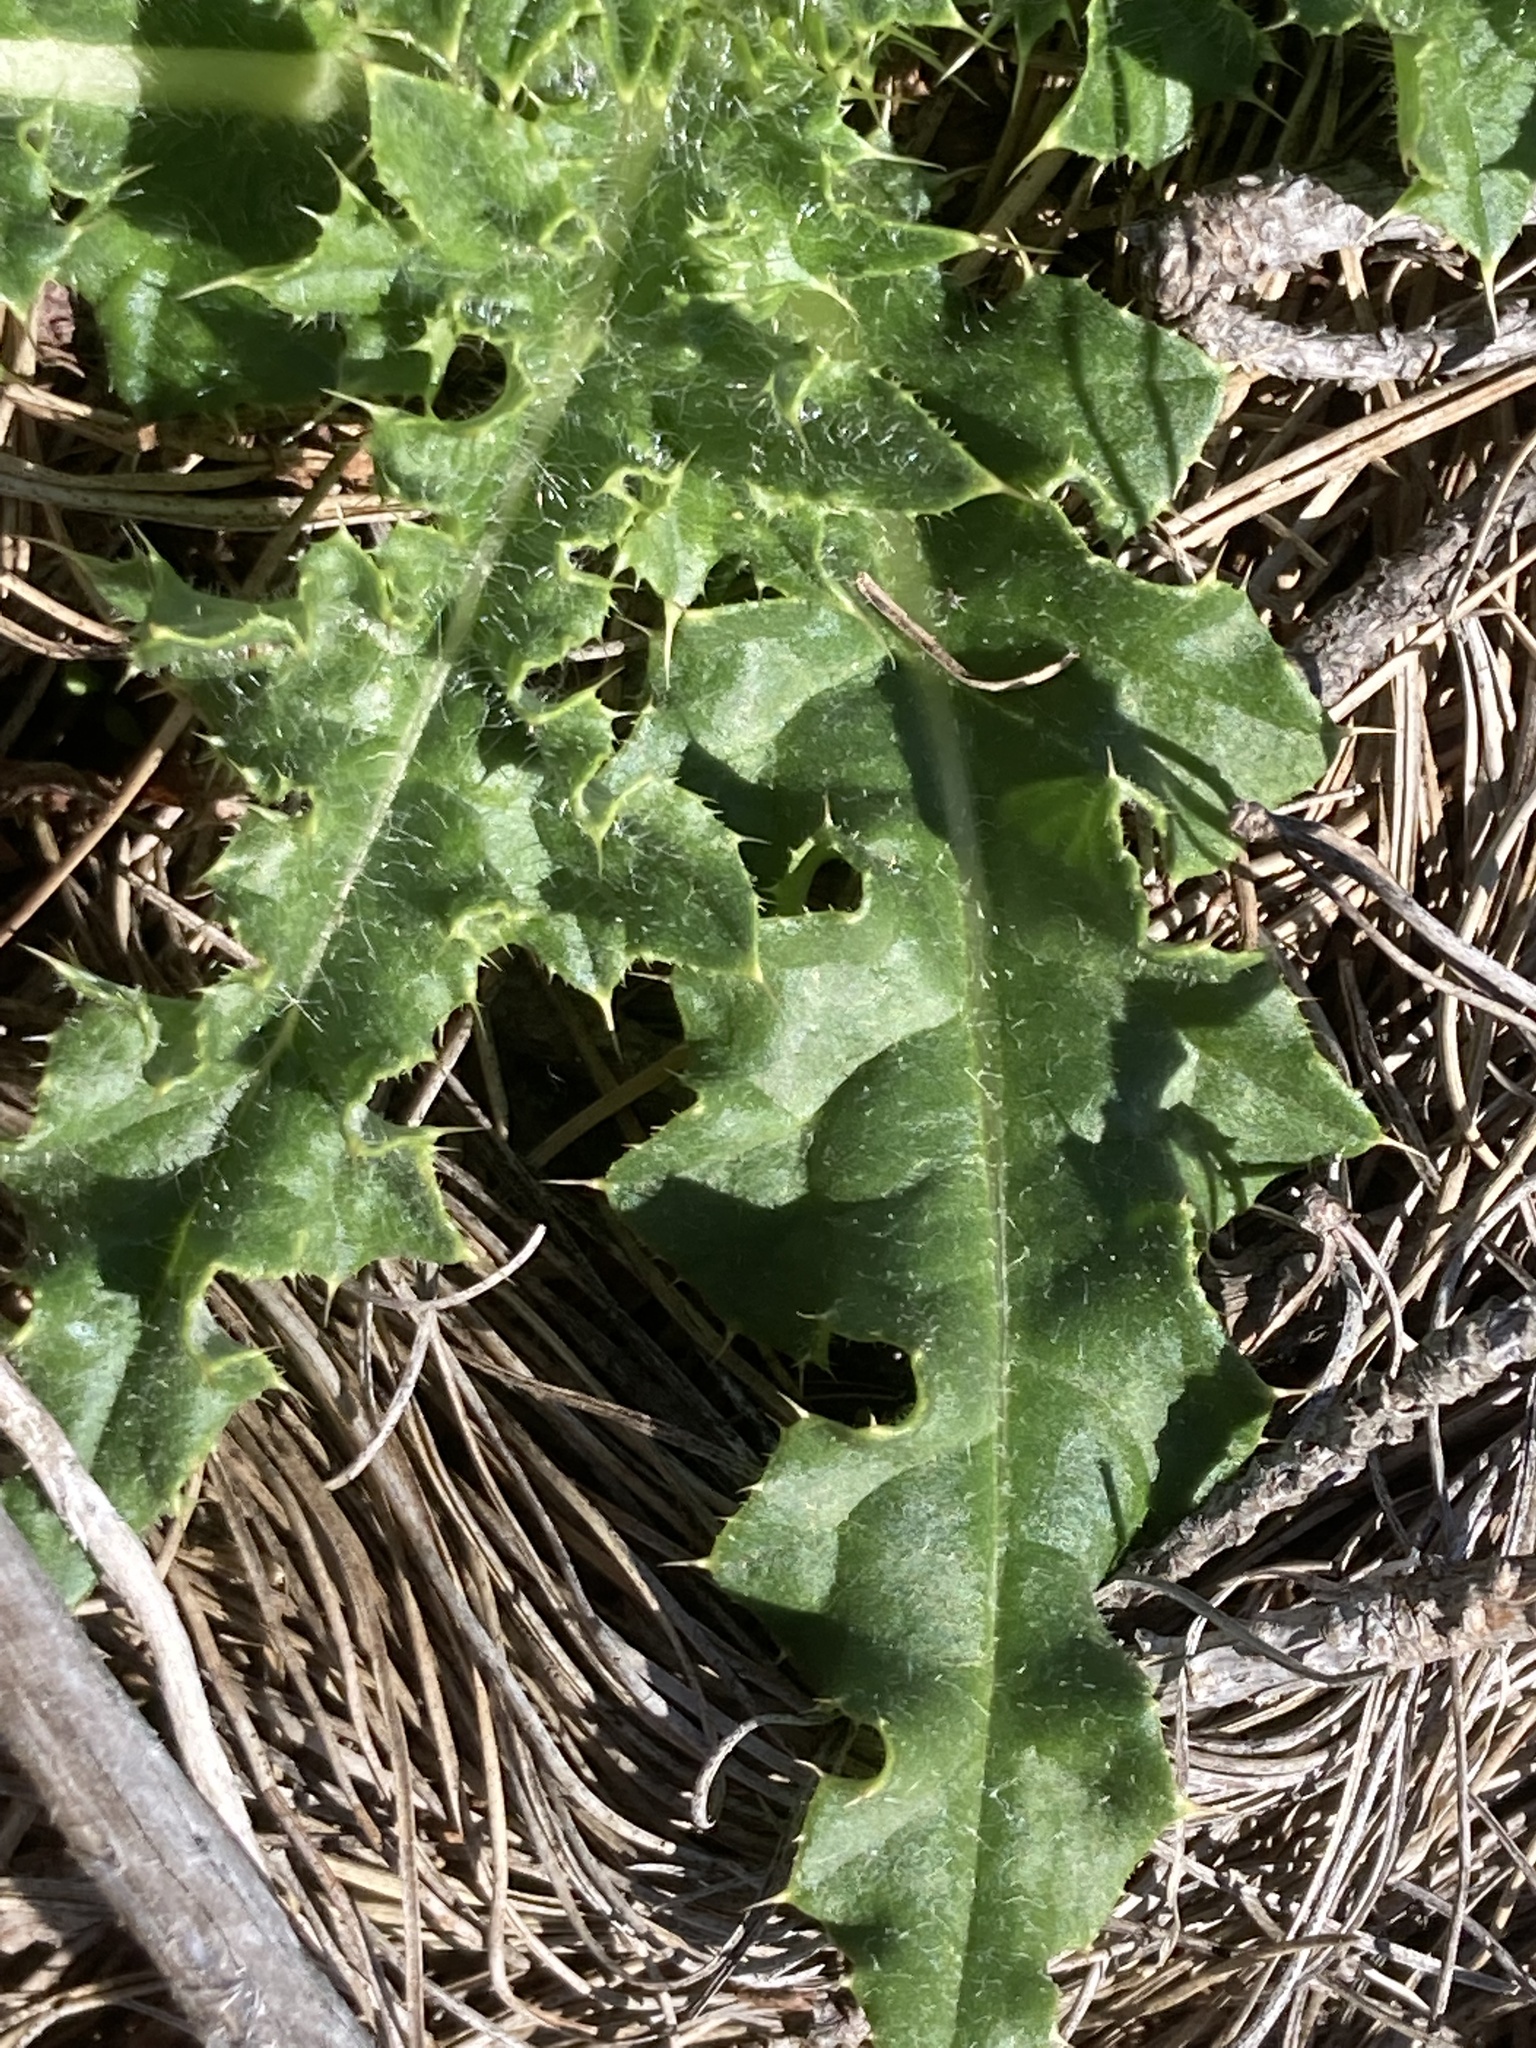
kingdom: Plantae
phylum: Tracheophyta
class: Magnoliopsida
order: Asterales
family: Asteraceae
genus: Cirsium
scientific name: Cirsium arvense
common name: Creeping thistle
